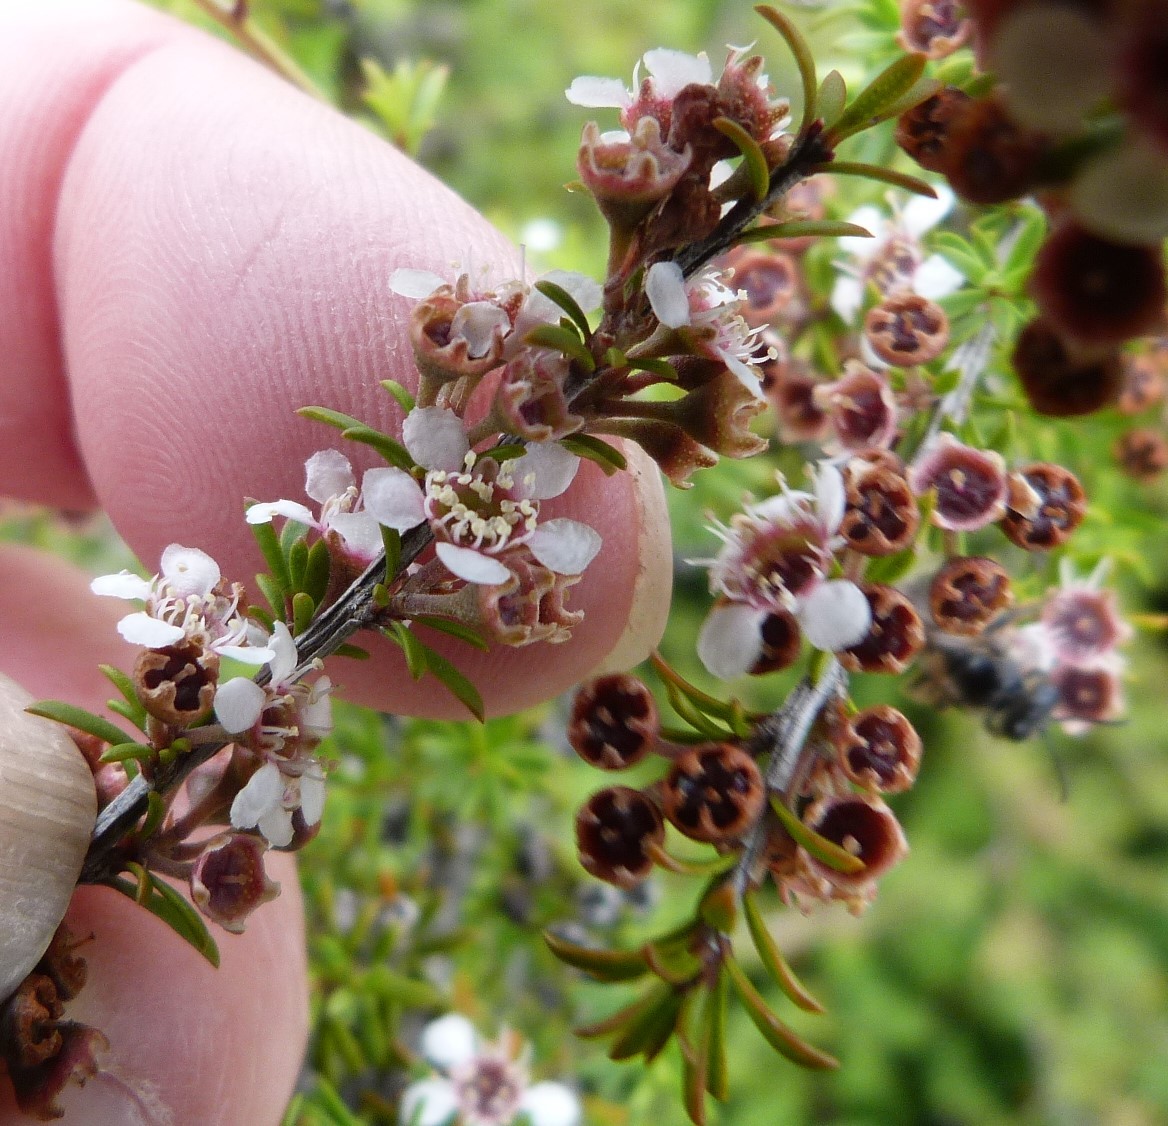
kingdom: Plantae
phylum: Tracheophyta
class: Magnoliopsida
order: Myrtales
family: Myrtaceae
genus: Kunzea
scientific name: Kunzea tenuicaulis
